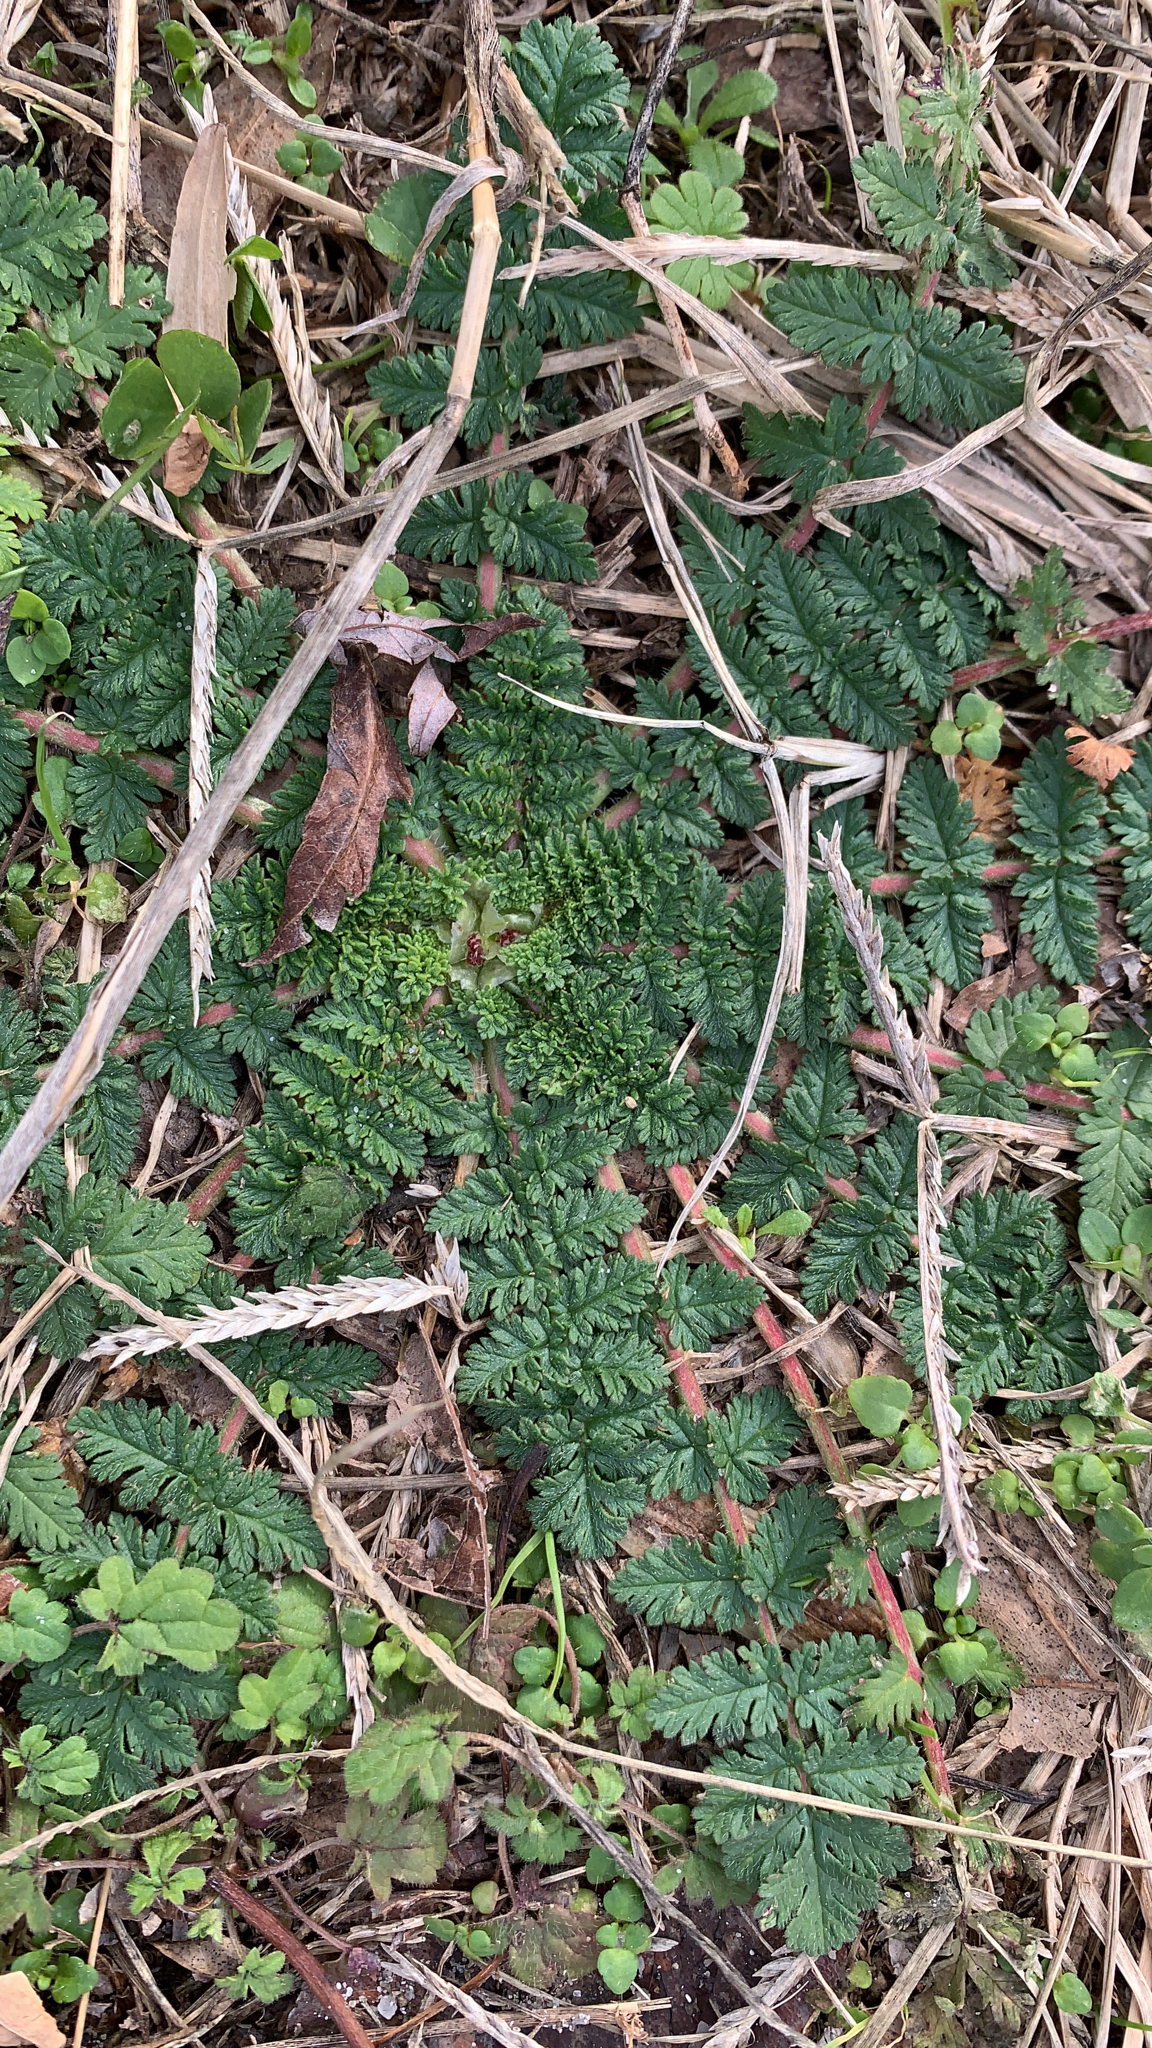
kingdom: Plantae
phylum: Tracheophyta
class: Magnoliopsida
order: Geraniales
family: Geraniaceae
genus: Erodium
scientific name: Erodium cicutarium
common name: Common stork's-bill
